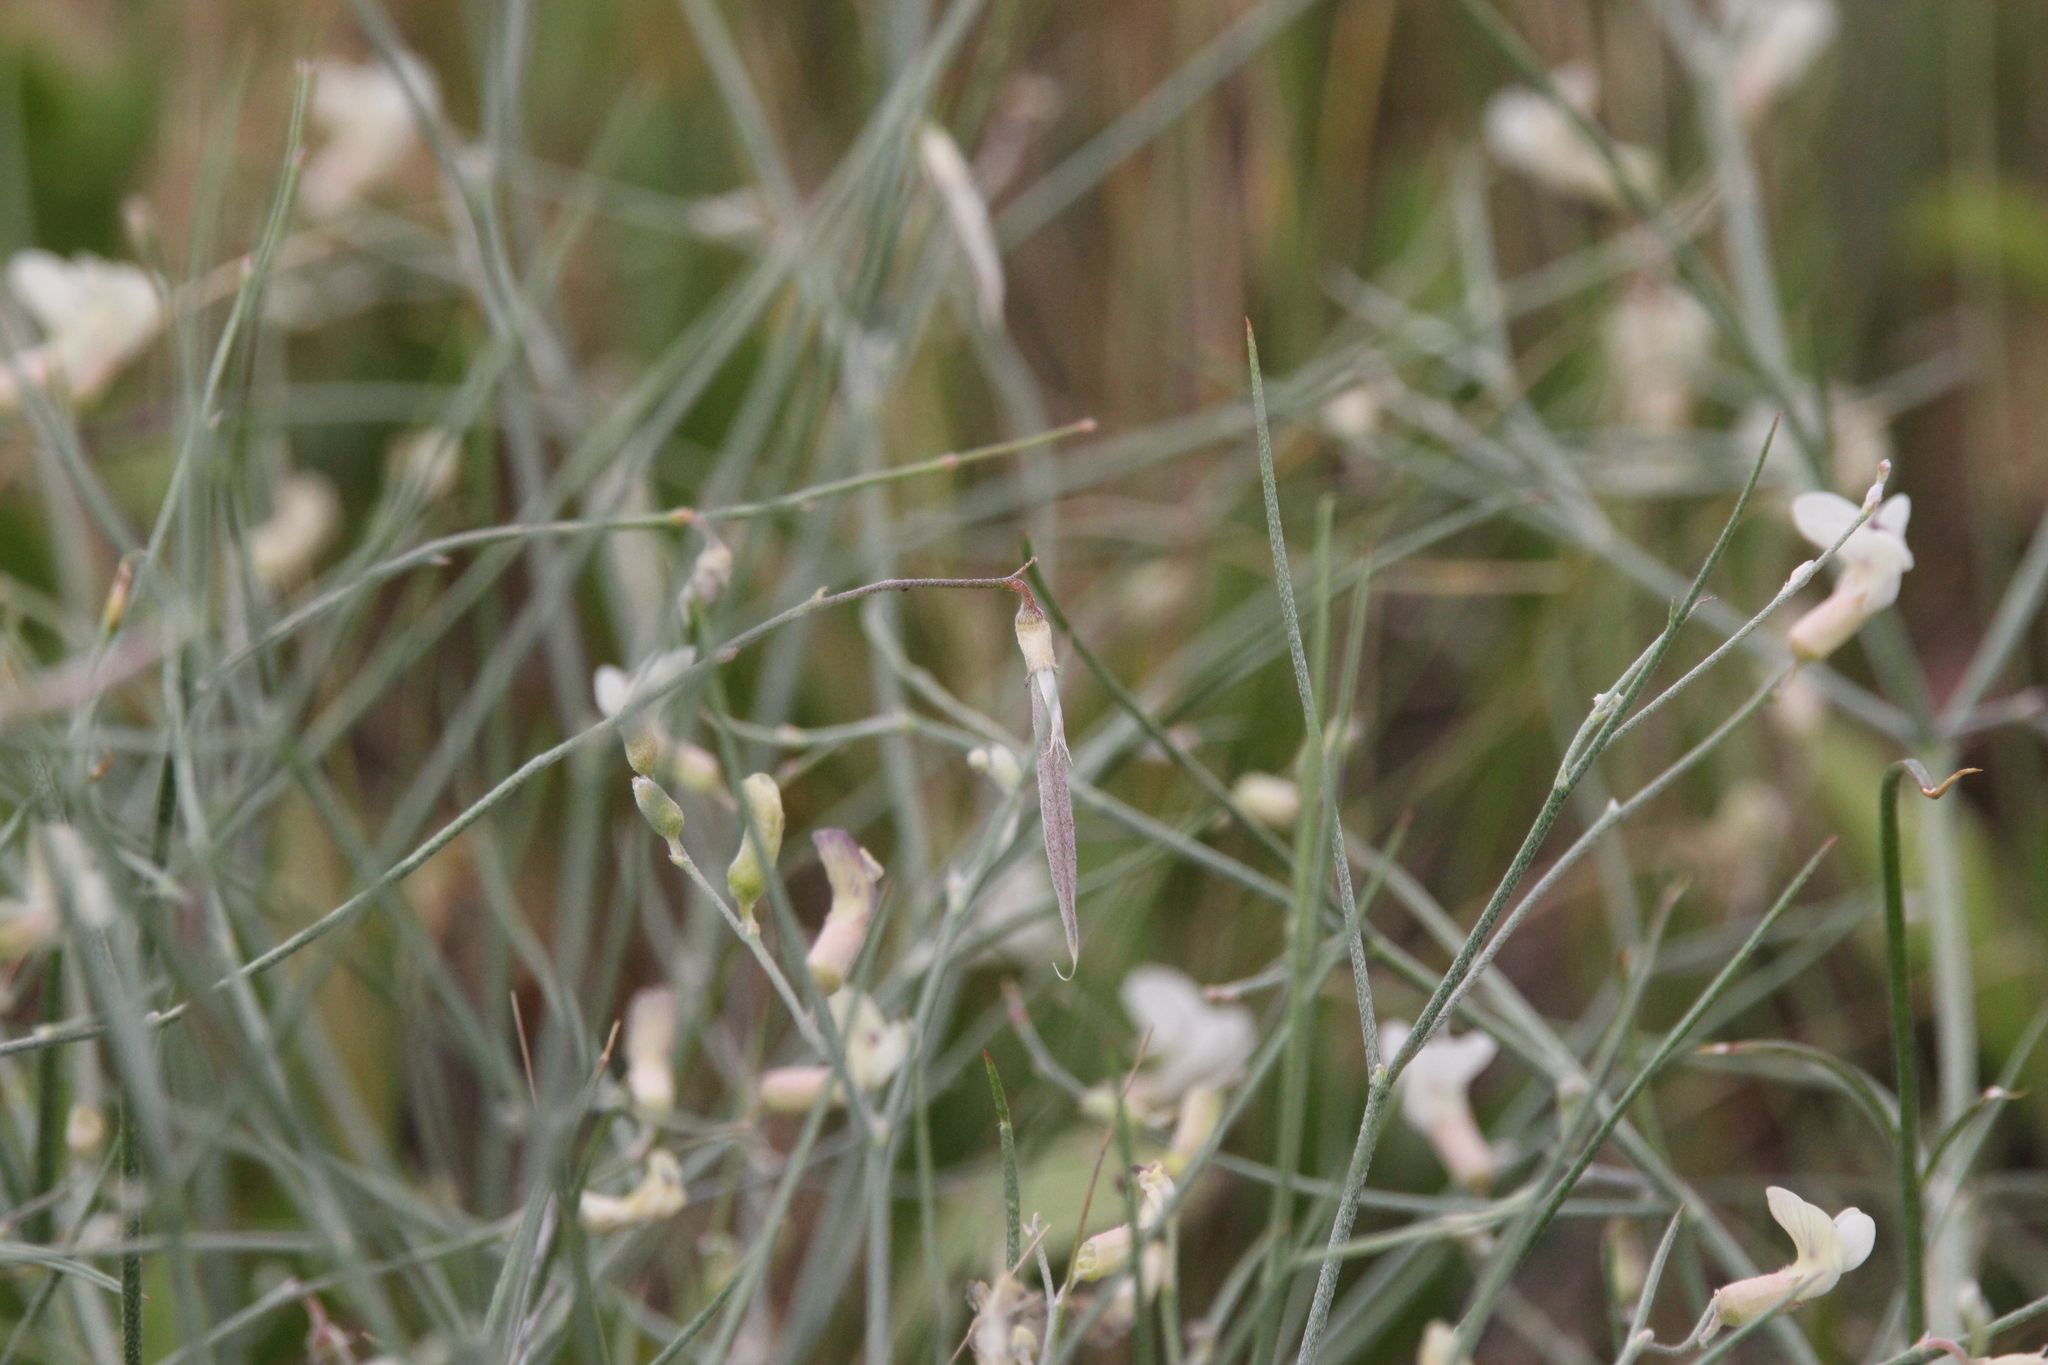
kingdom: Plantae
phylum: Tracheophyta
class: Magnoliopsida
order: Fabales
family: Fabaceae
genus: Astragalus
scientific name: Astragalus convallarius
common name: Lesser rushy milk-vetch
